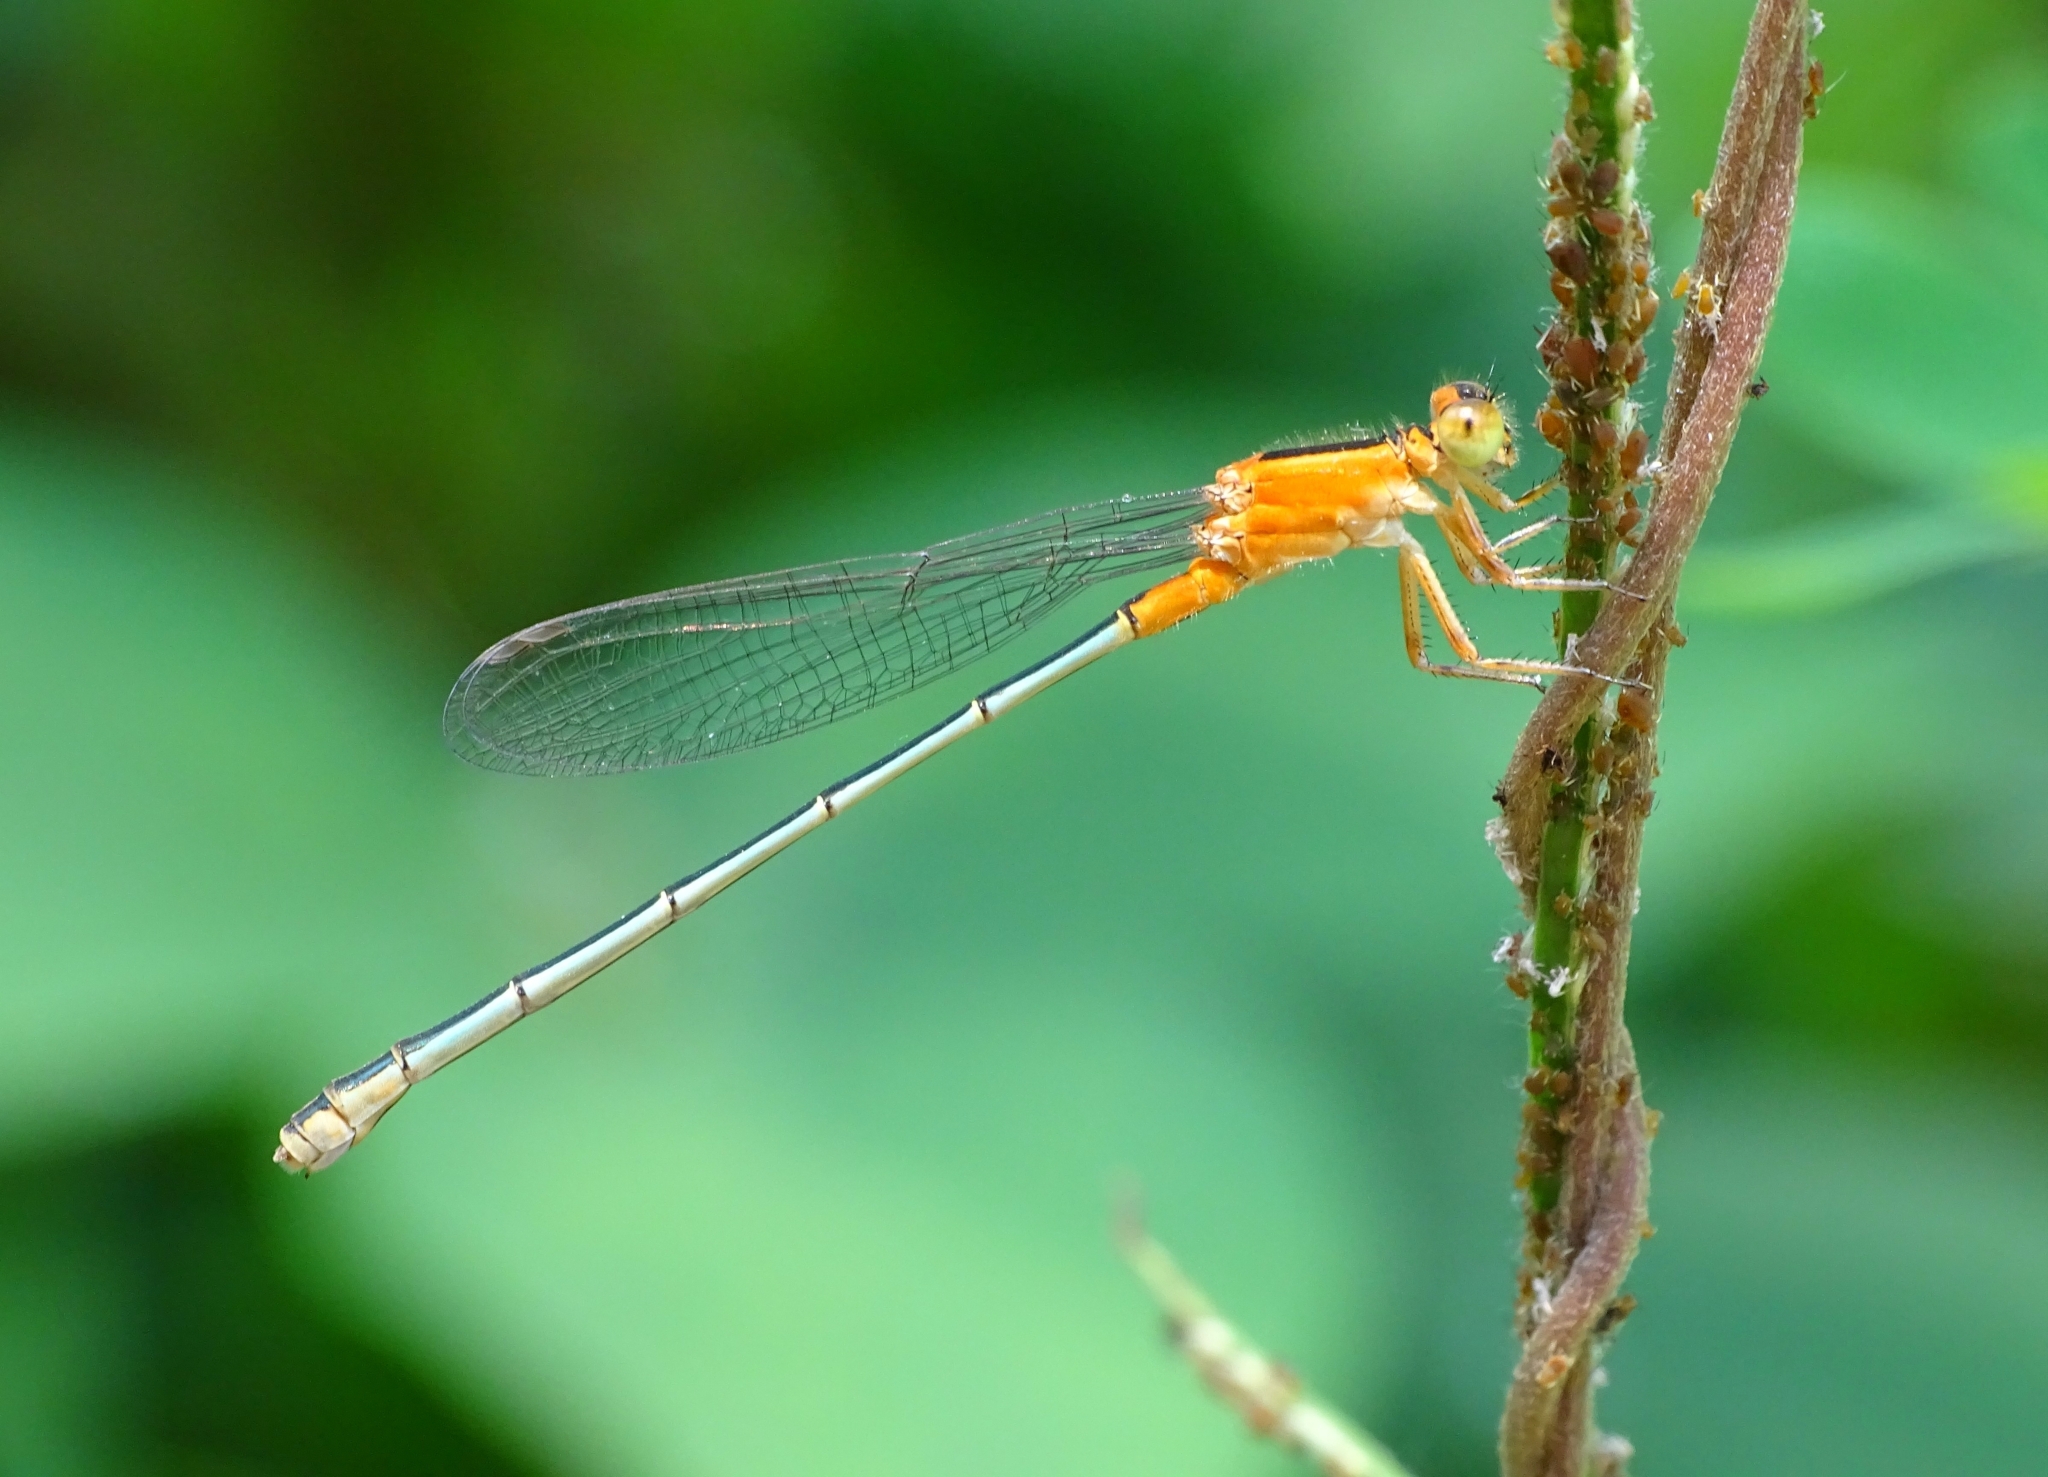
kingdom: Animalia
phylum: Arthropoda
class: Insecta
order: Odonata
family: Coenagrionidae
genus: Ischnura
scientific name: Ischnura senegalensis
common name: Tropical bluetail
